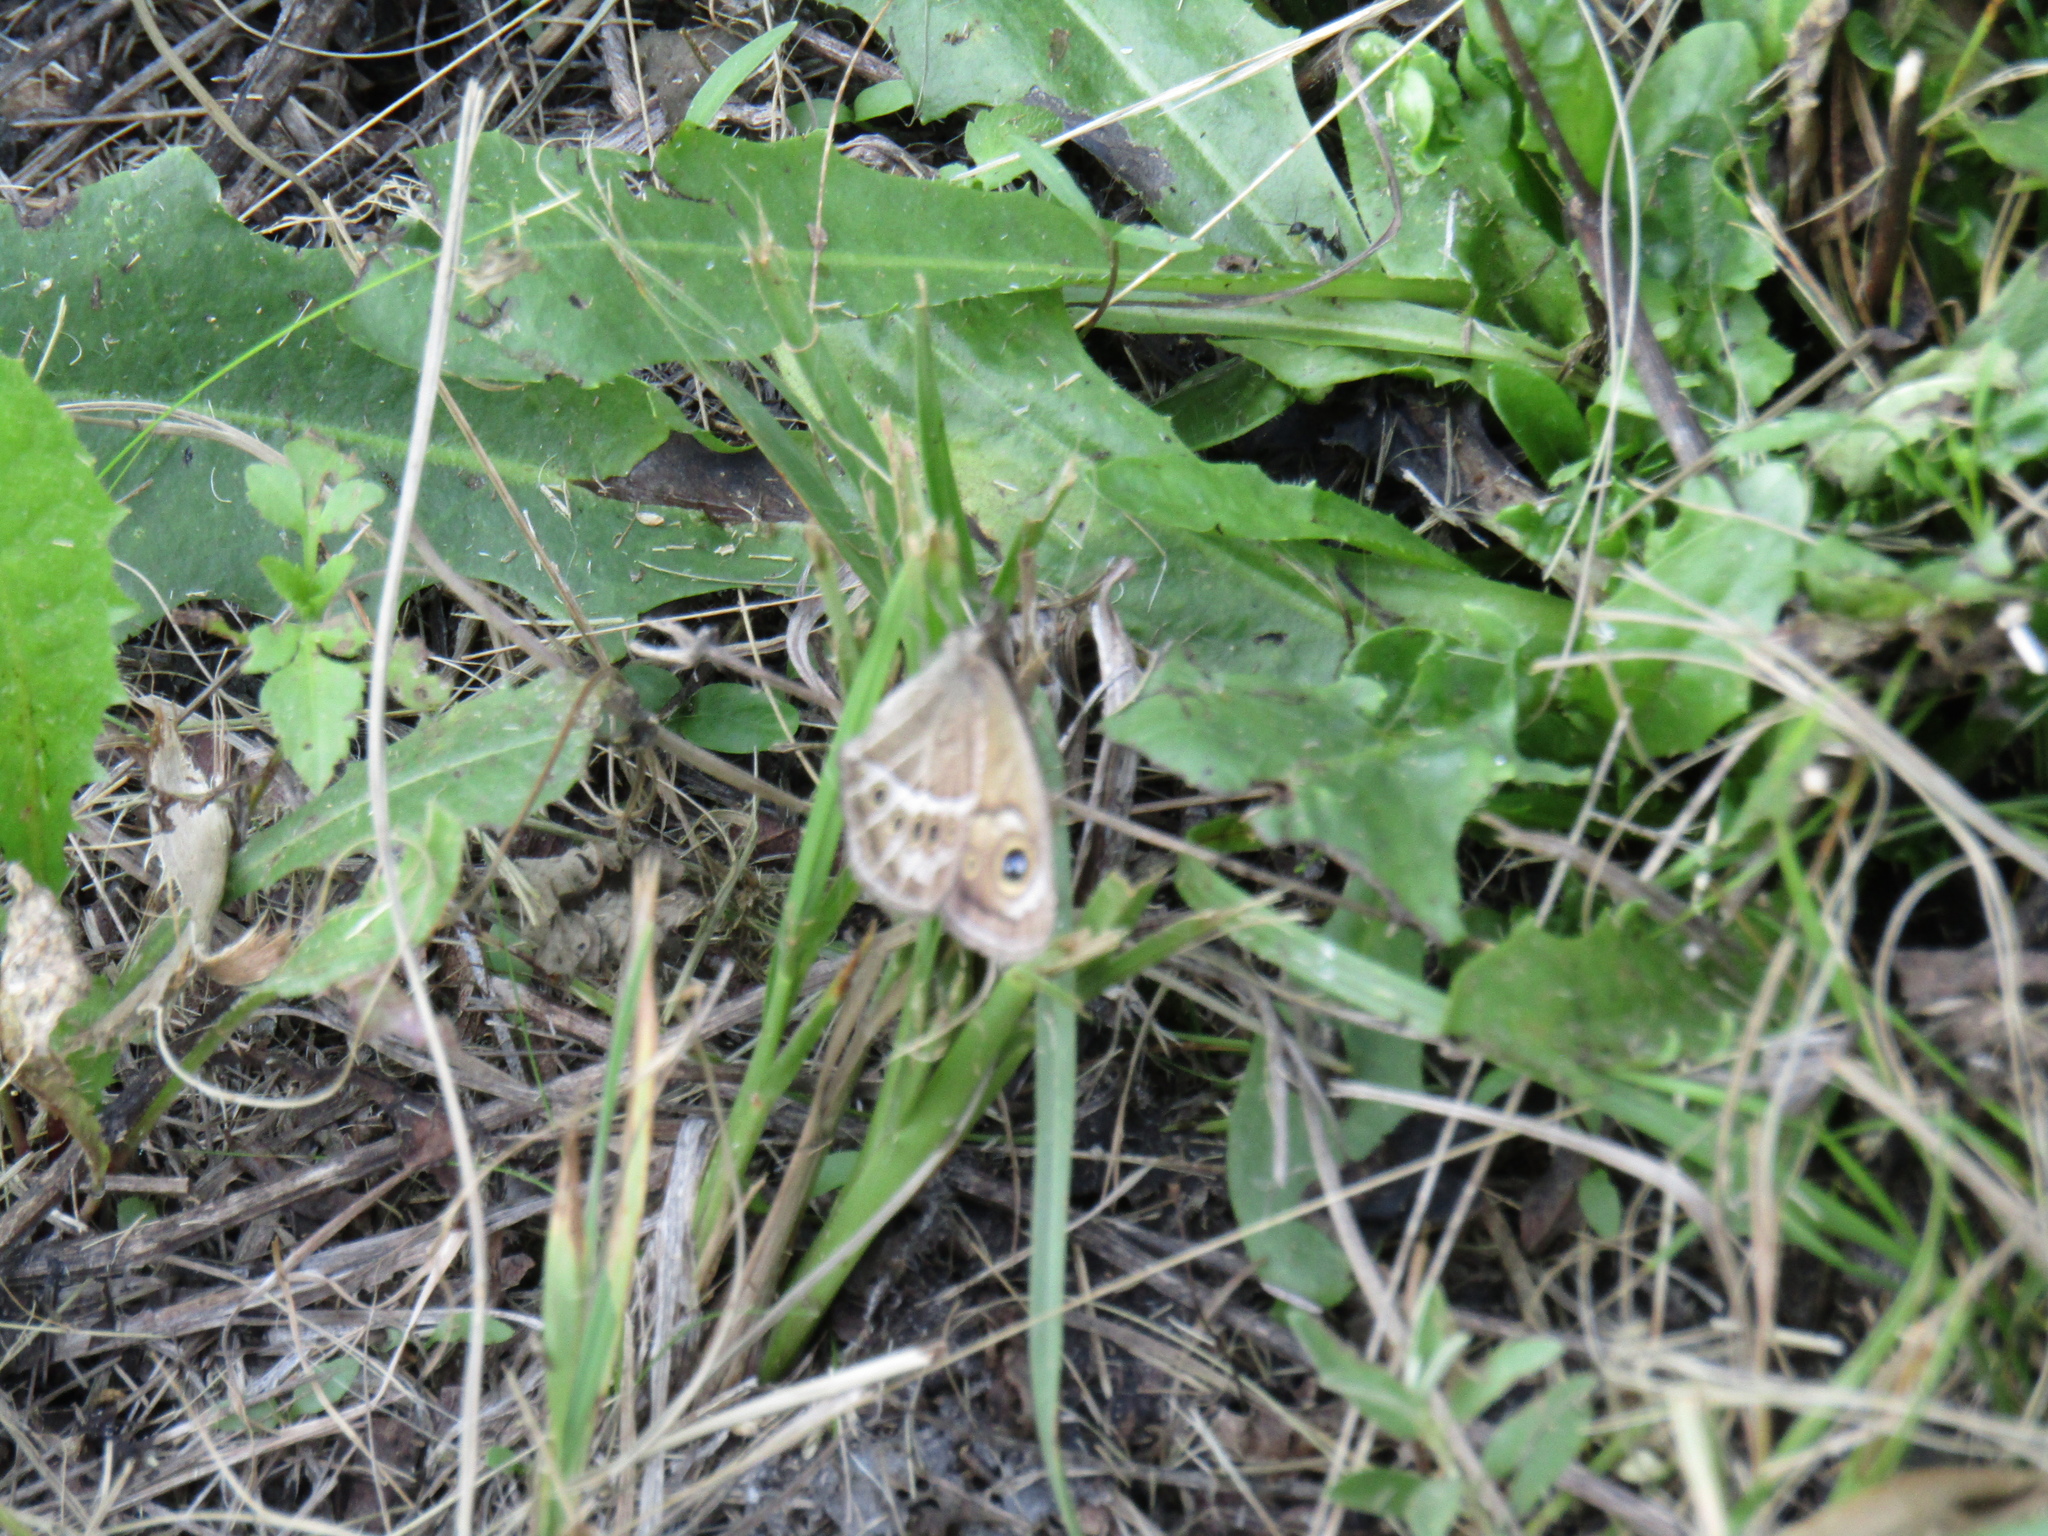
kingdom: Animalia
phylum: Arthropoda
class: Insecta
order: Lepidoptera
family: Nymphalidae
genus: Pampasatyrus
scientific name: Pampasatyrus gyrtone
